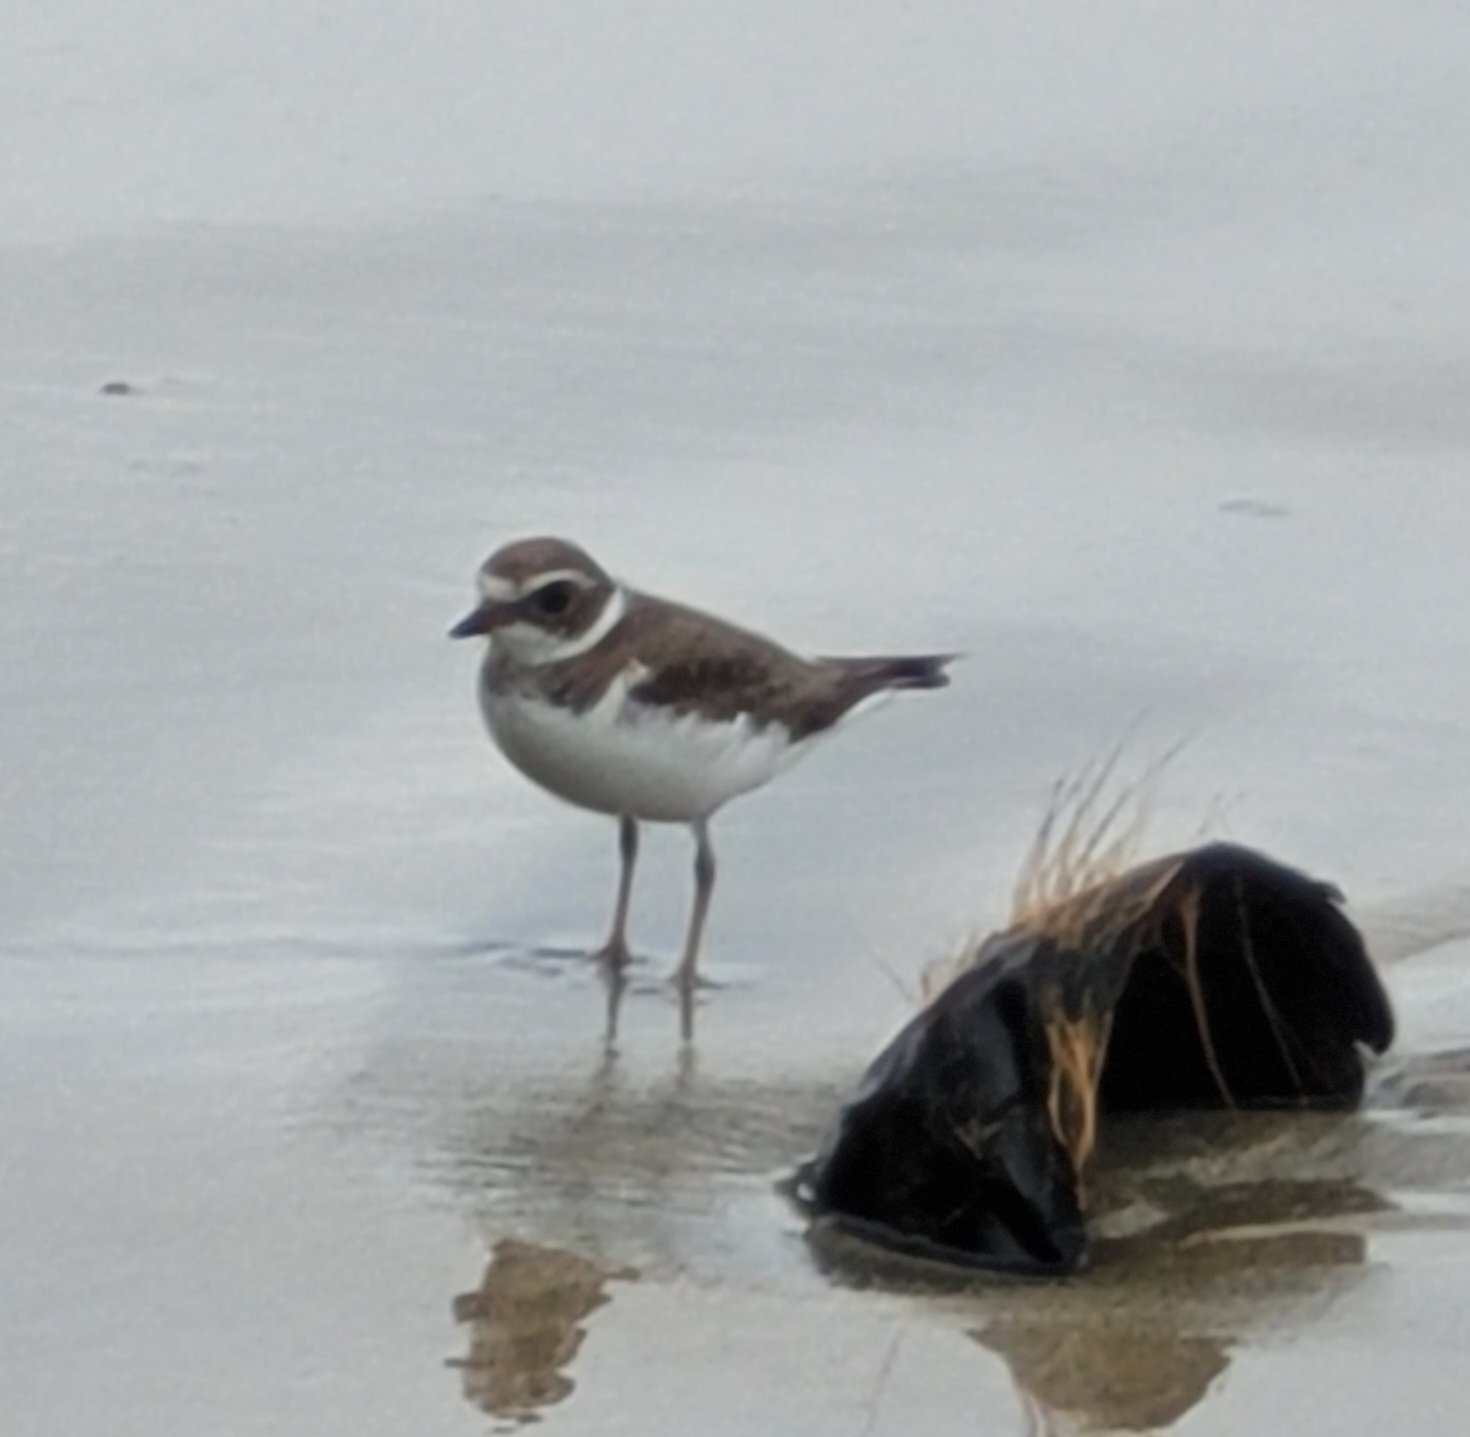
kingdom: Animalia
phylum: Chordata
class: Aves
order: Charadriiformes
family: Charadriidae
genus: Charadrius
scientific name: Charadrius semipalmatus
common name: Semipalmated plover
